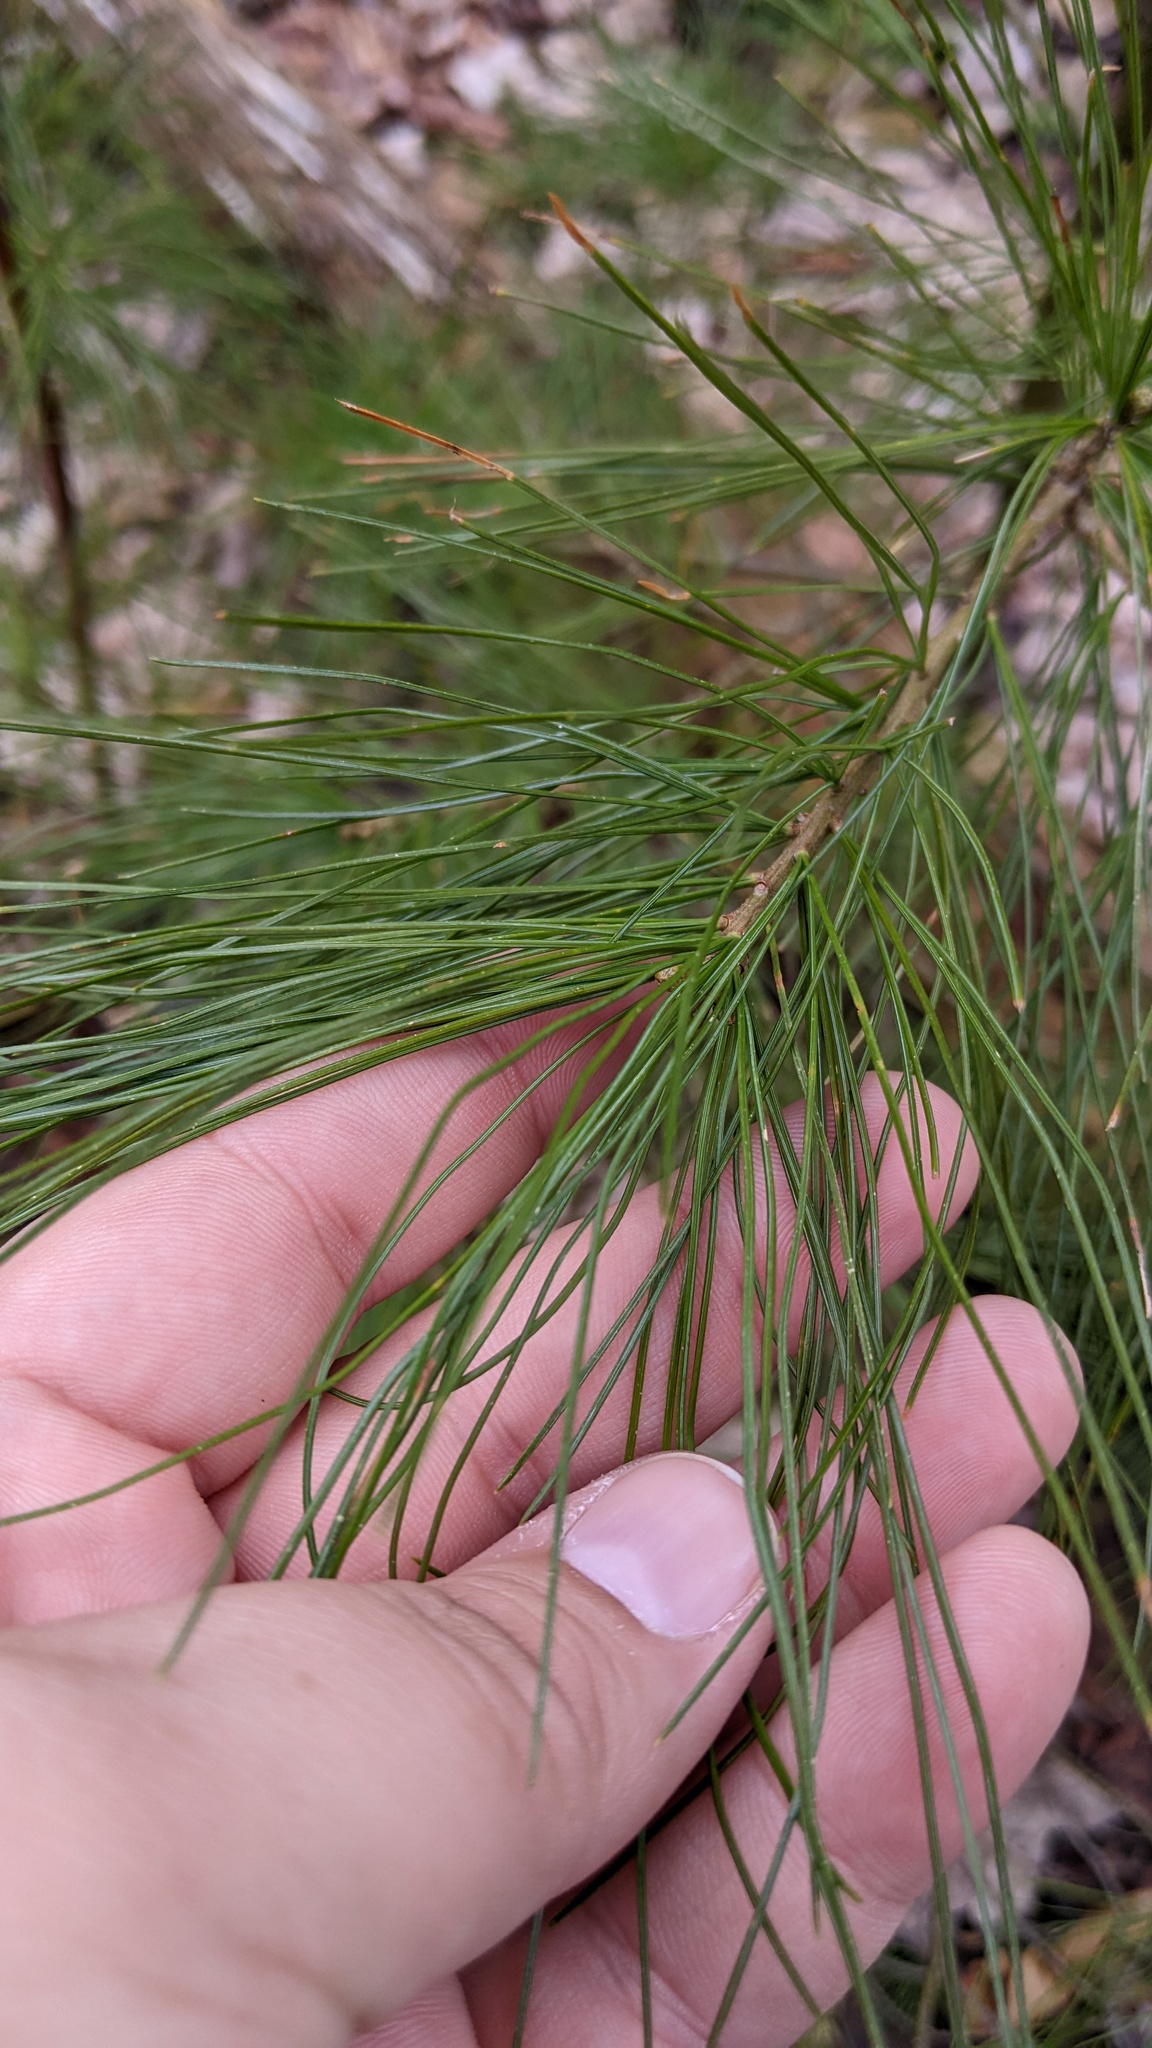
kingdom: Plantae
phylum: Tracheophyta
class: Pinopsida
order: Pinales
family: Pinaceae
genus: Pinus
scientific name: Pinus strobus
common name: Weymouth pine
